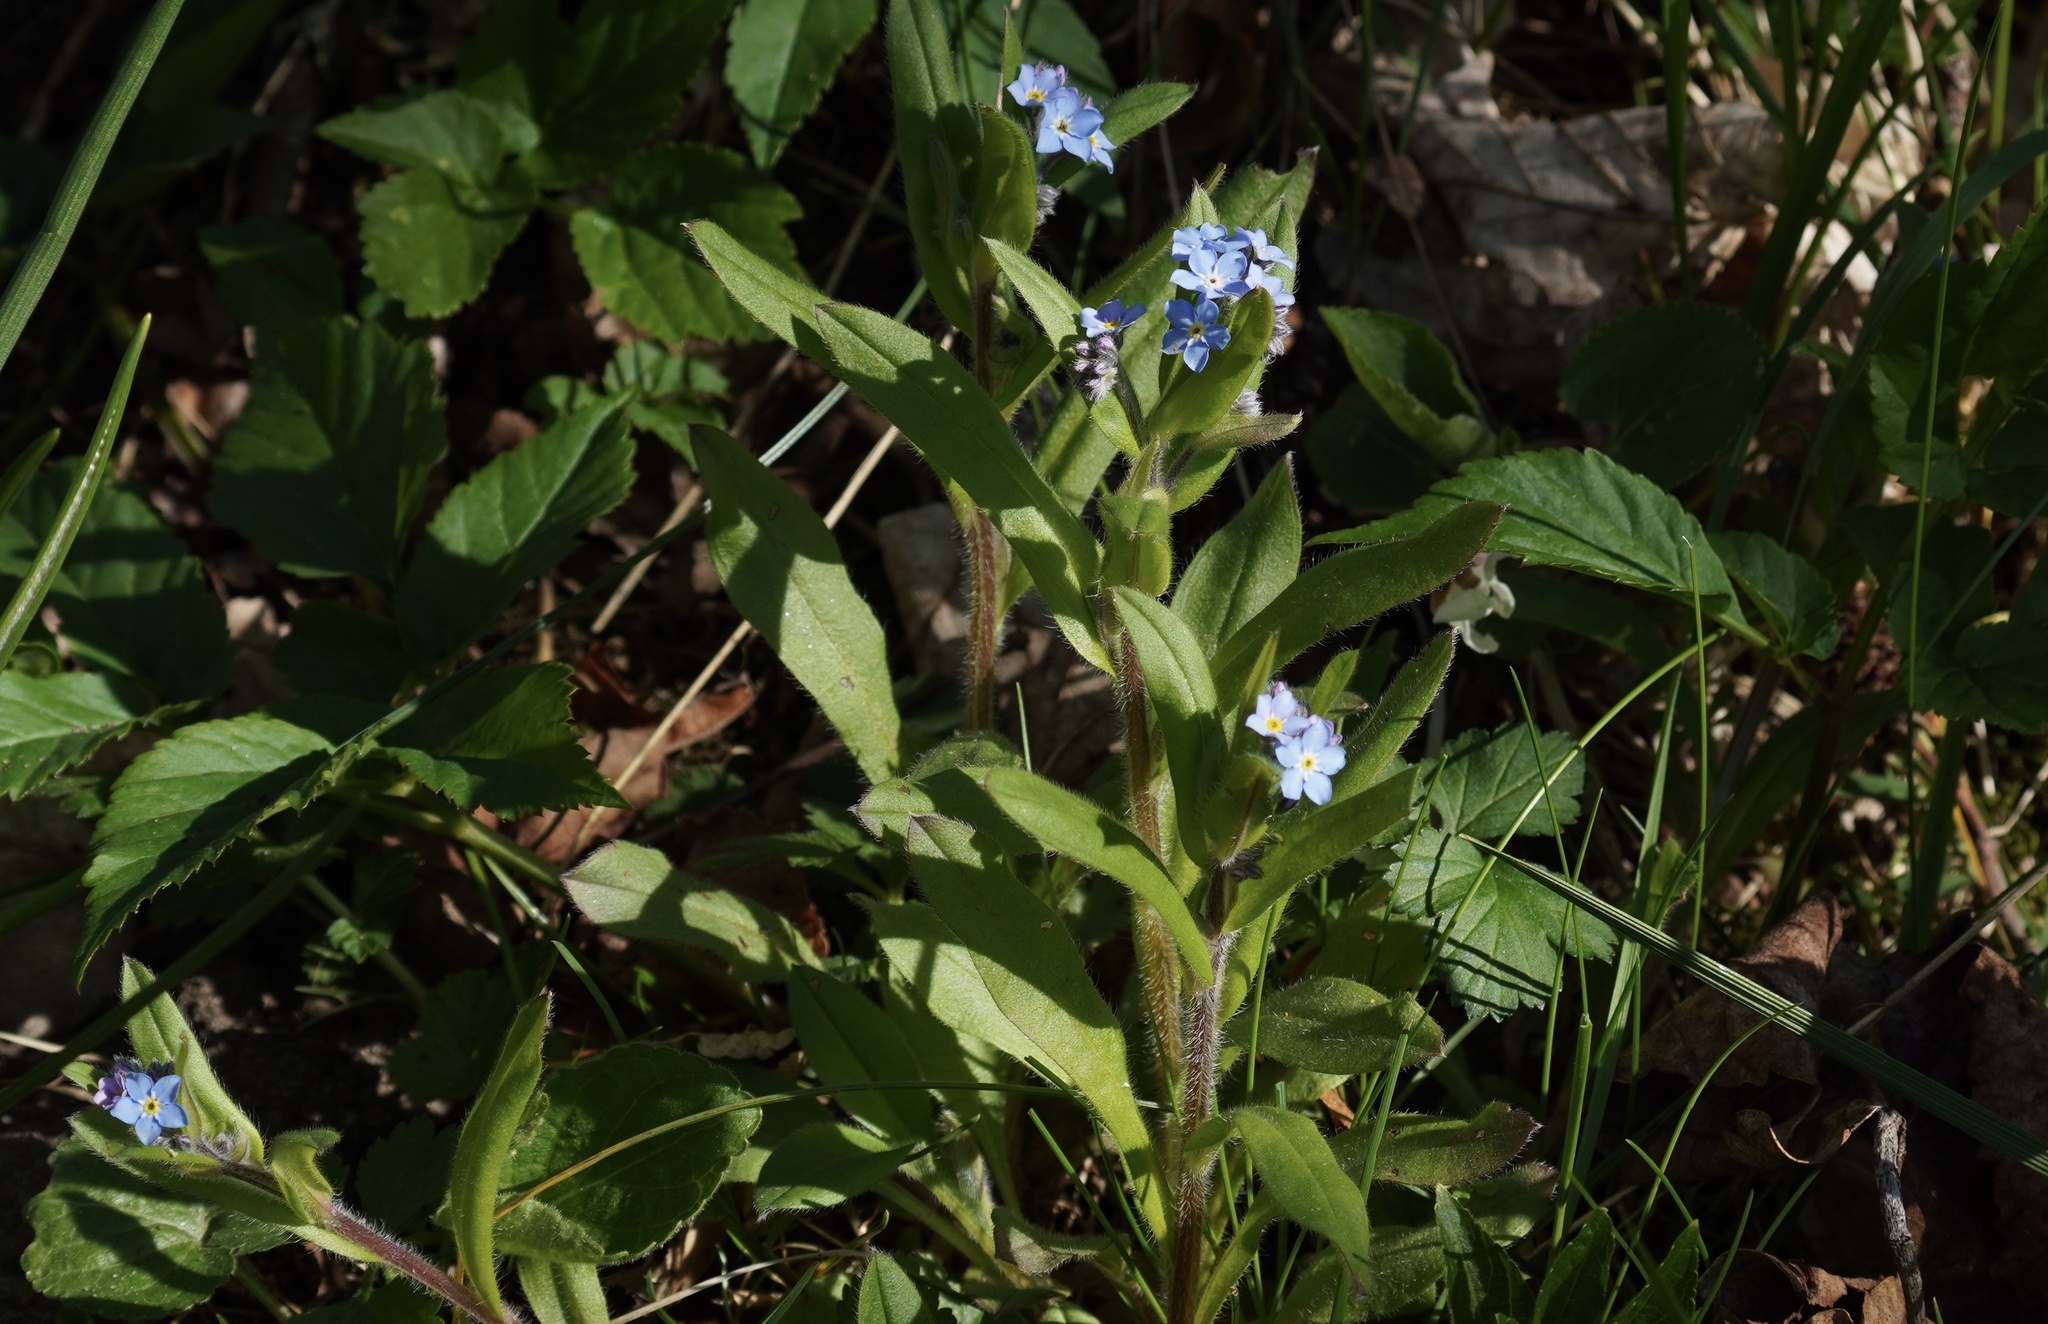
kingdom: Plantae
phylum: Tracheophyta
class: Magnoliopsida
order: Boraginales
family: Boraginaceae
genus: Myosotis
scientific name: Myosotis sylvatica
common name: Wood forget-me-not
